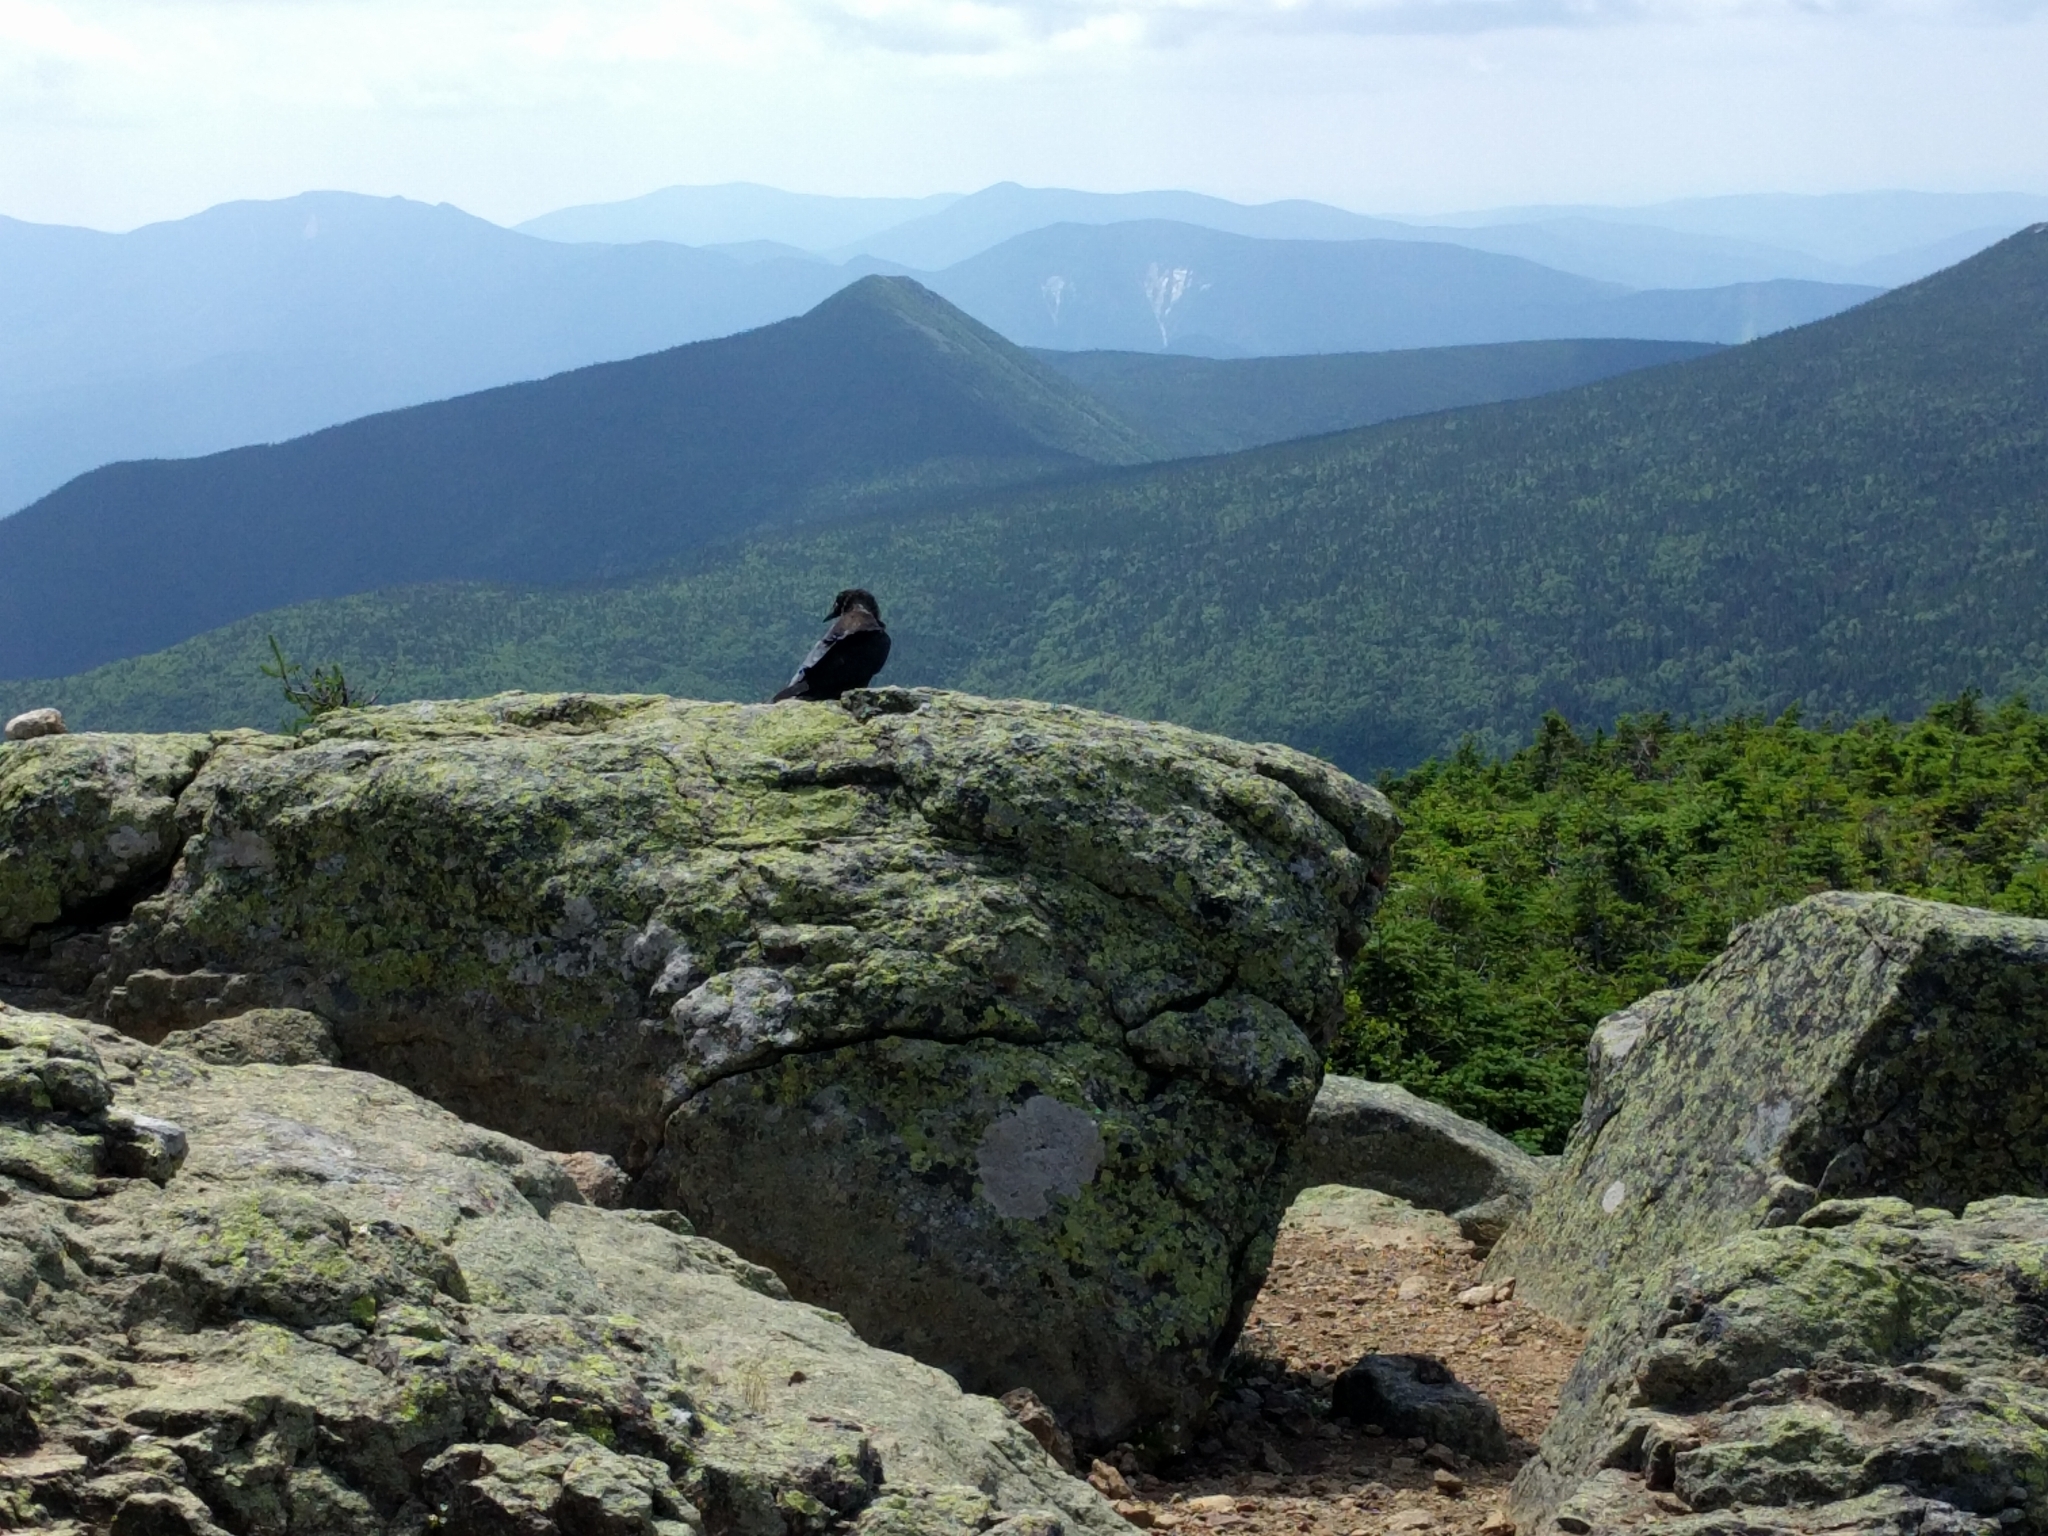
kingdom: Animalia
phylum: Chordata
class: Aves
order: Passeriformes
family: Corvidae
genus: Corvus
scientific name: Corvus corax
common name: Common raven
